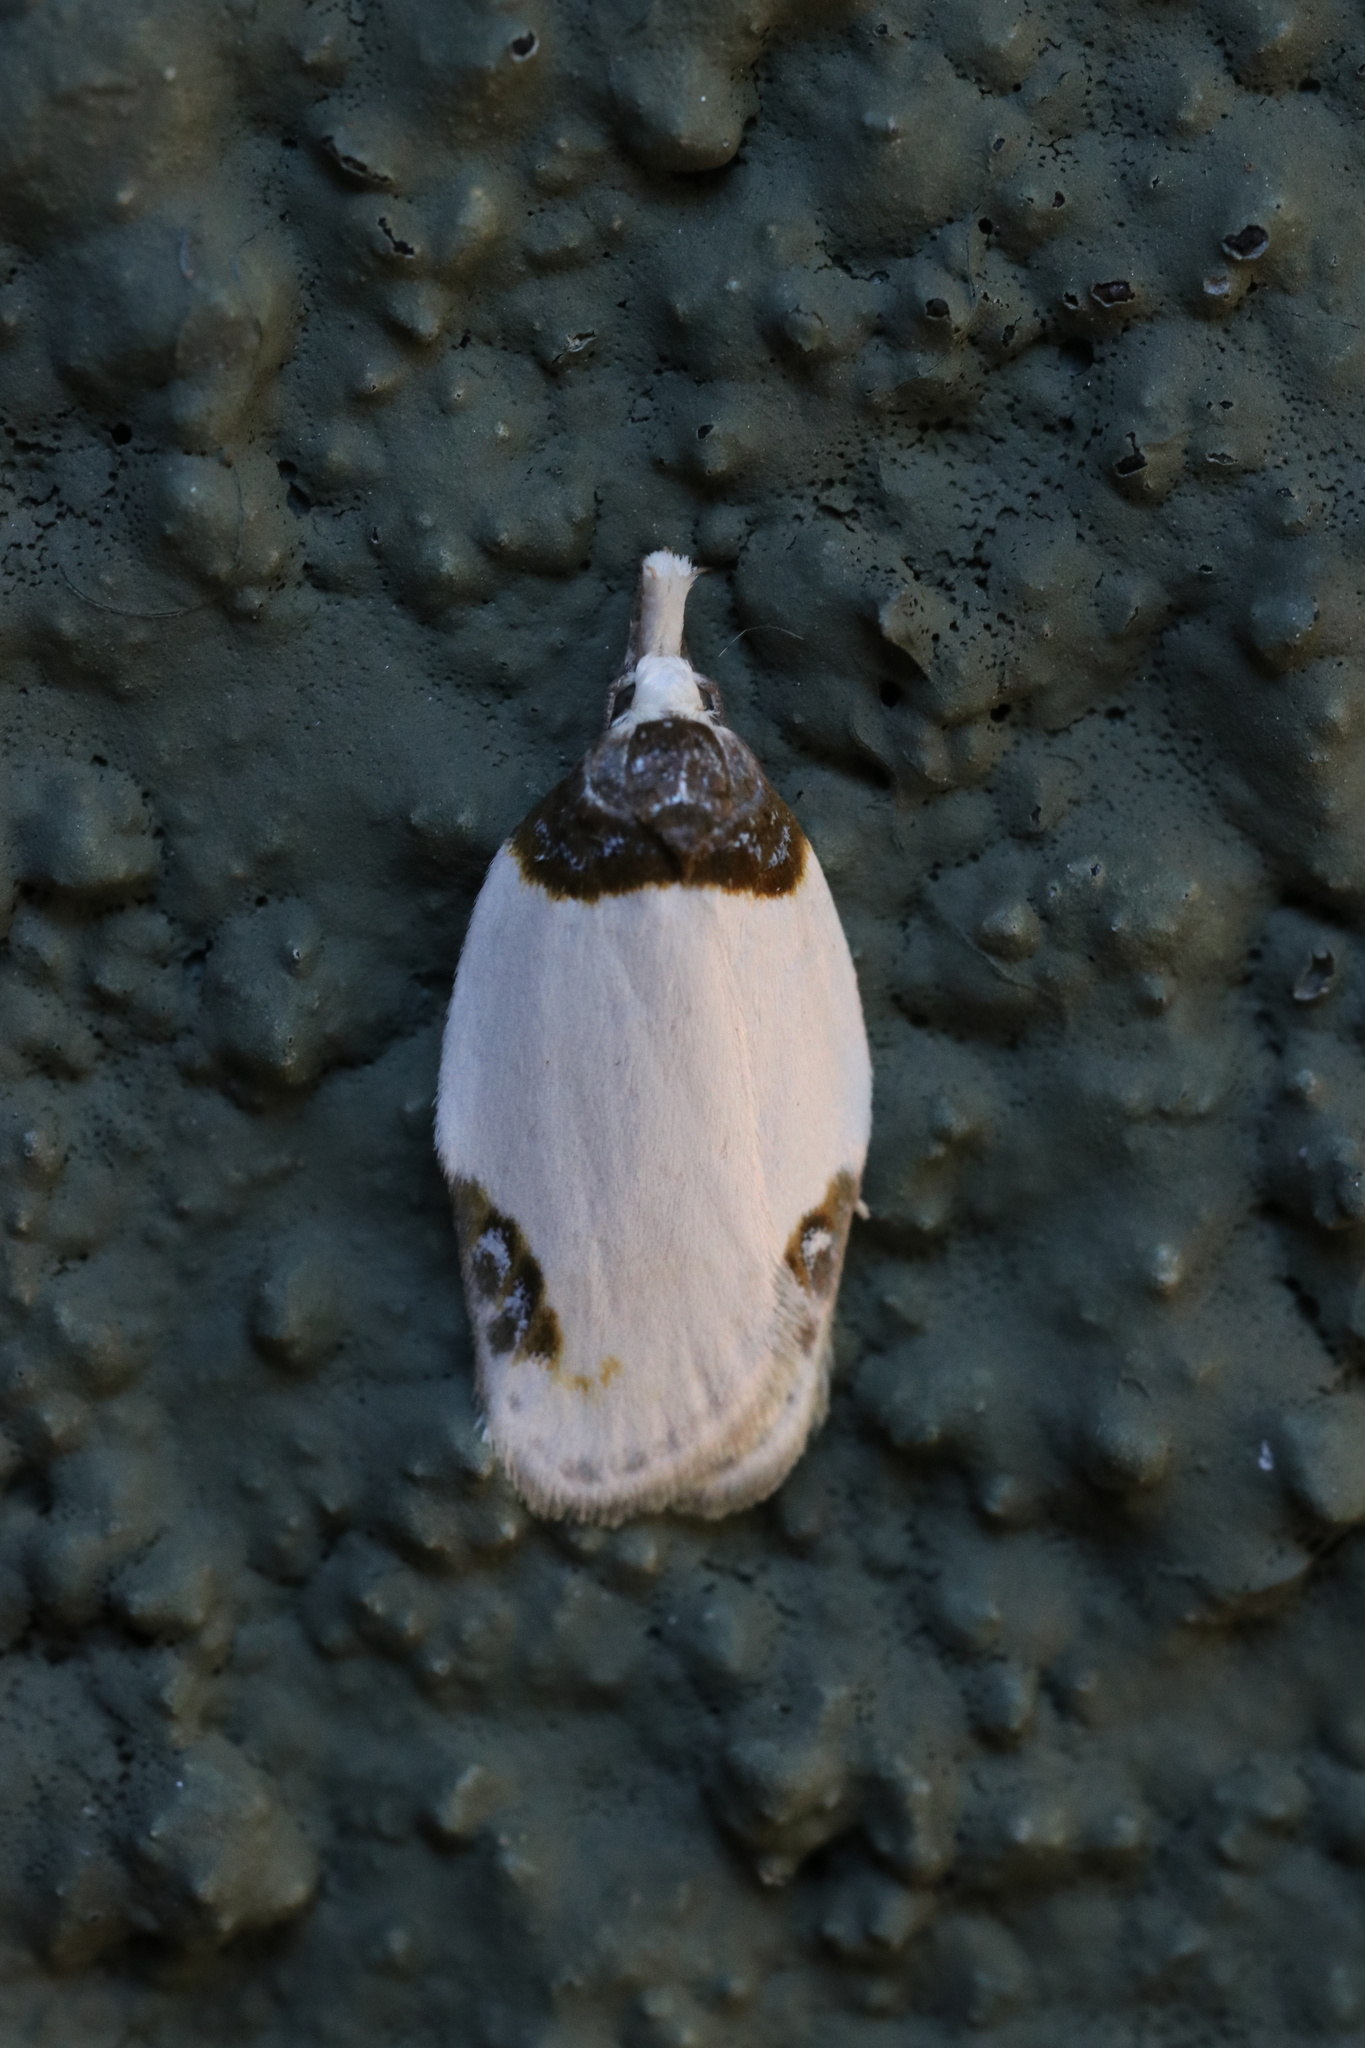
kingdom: Animalia
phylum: Arthropoda
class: Insecta
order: Lepidoptera
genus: Callistenoma
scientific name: Callistenoma
